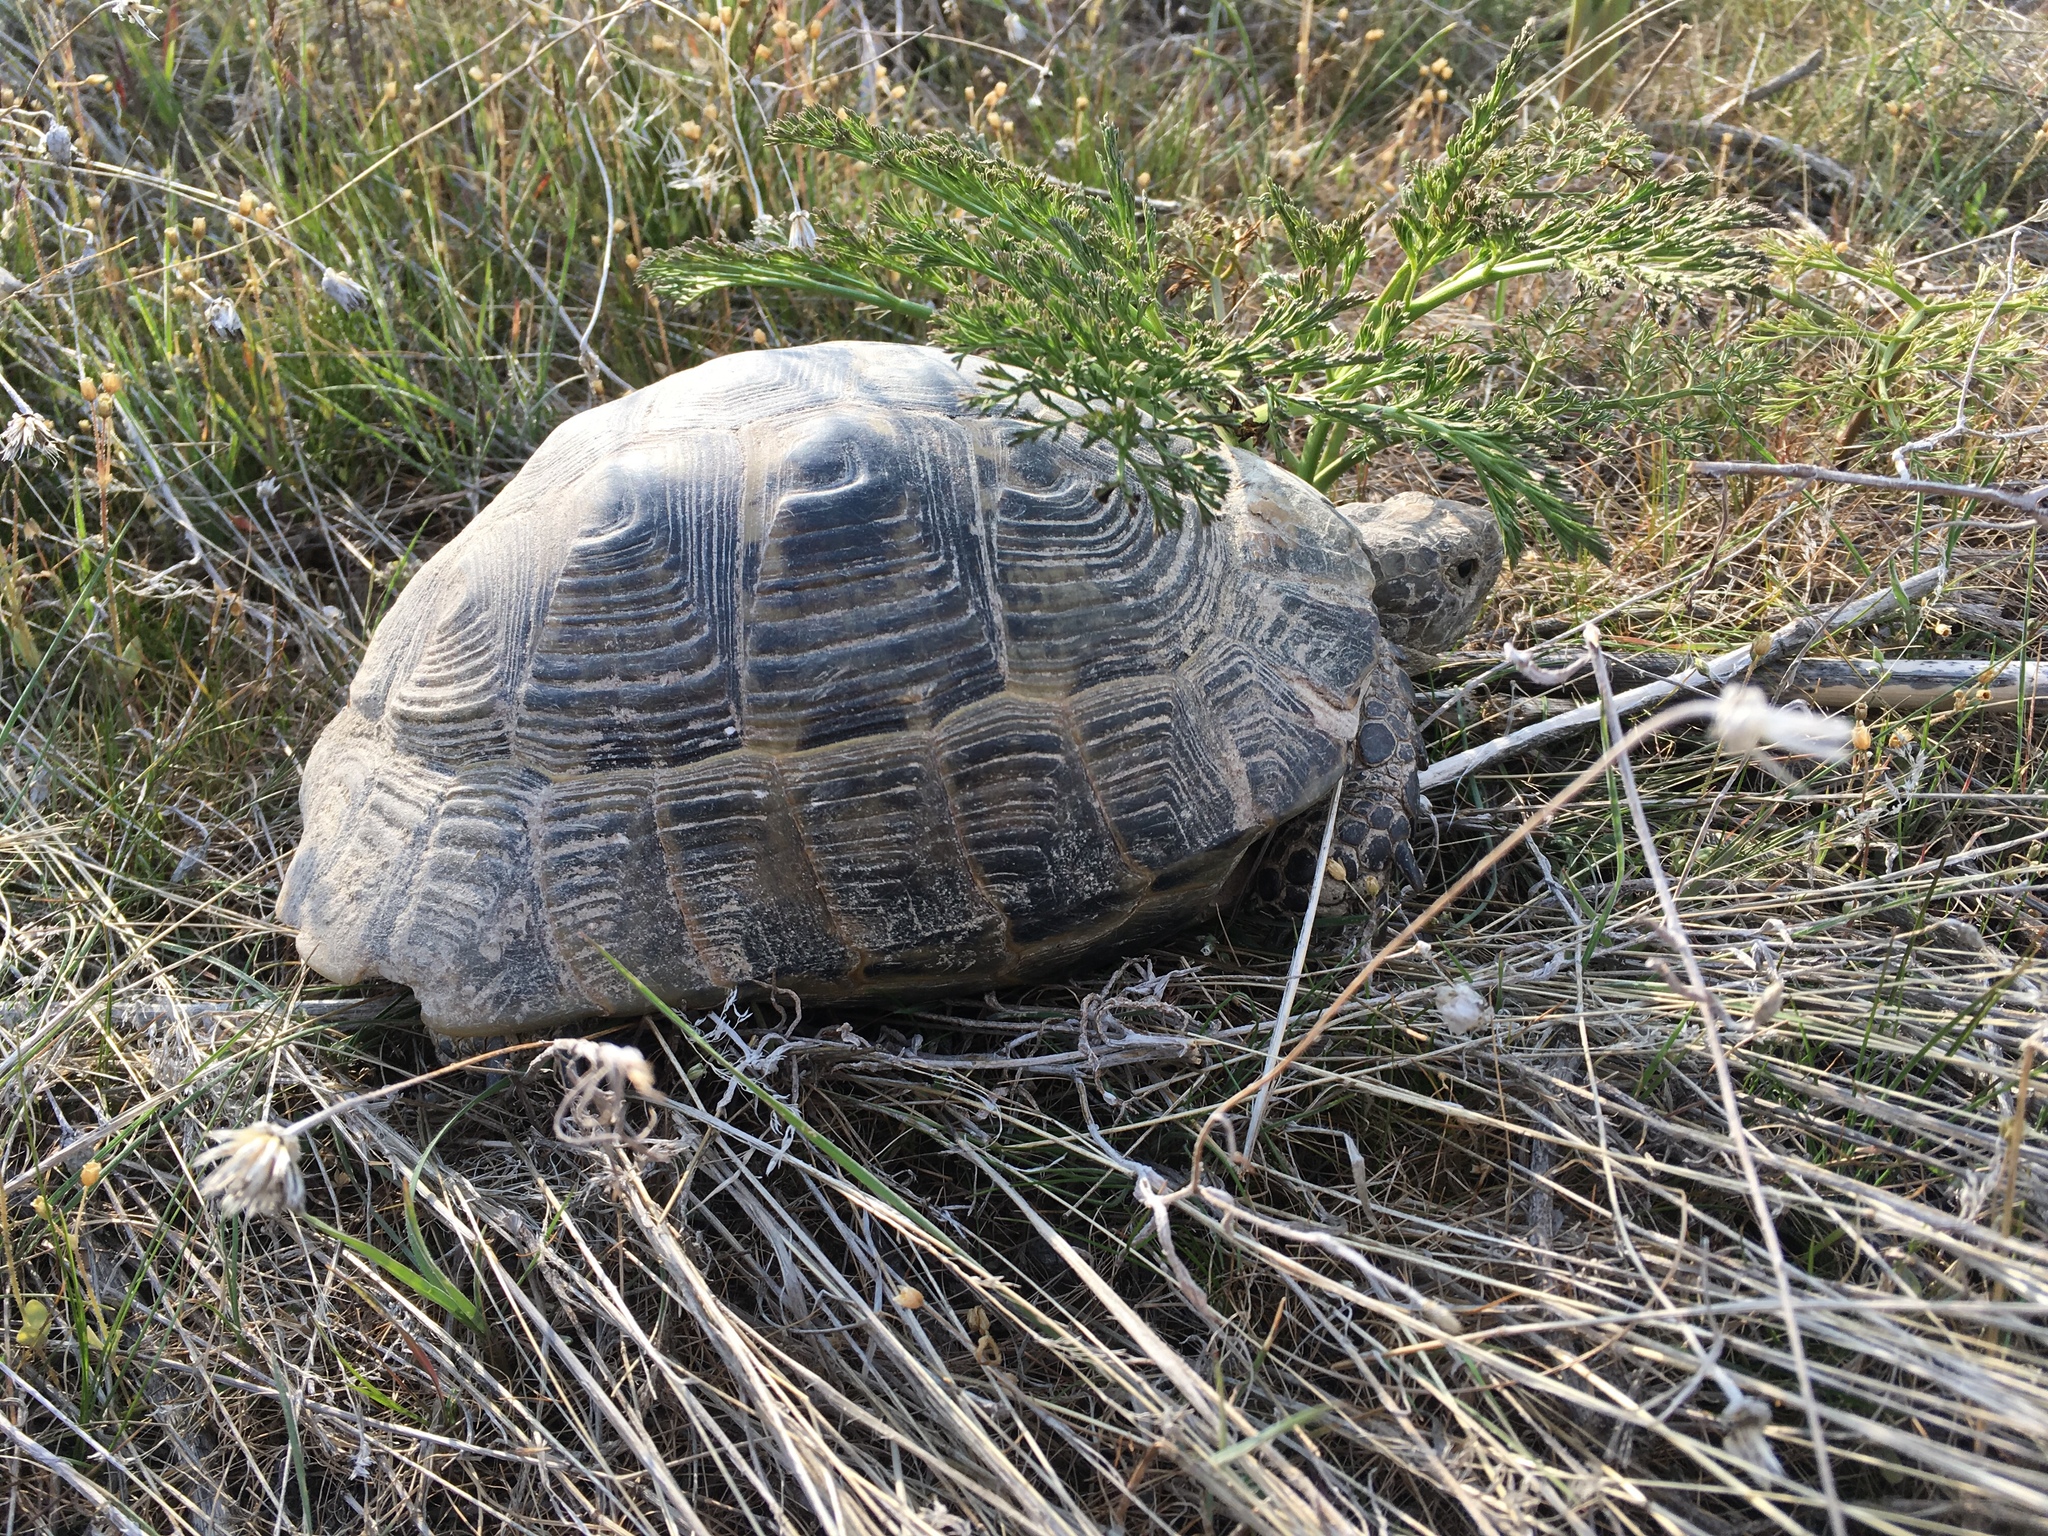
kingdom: Animalia
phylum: Chordata
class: Testudines
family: Testudinidae
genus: Testudo
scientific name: Testudo graeca
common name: Common tortoise
